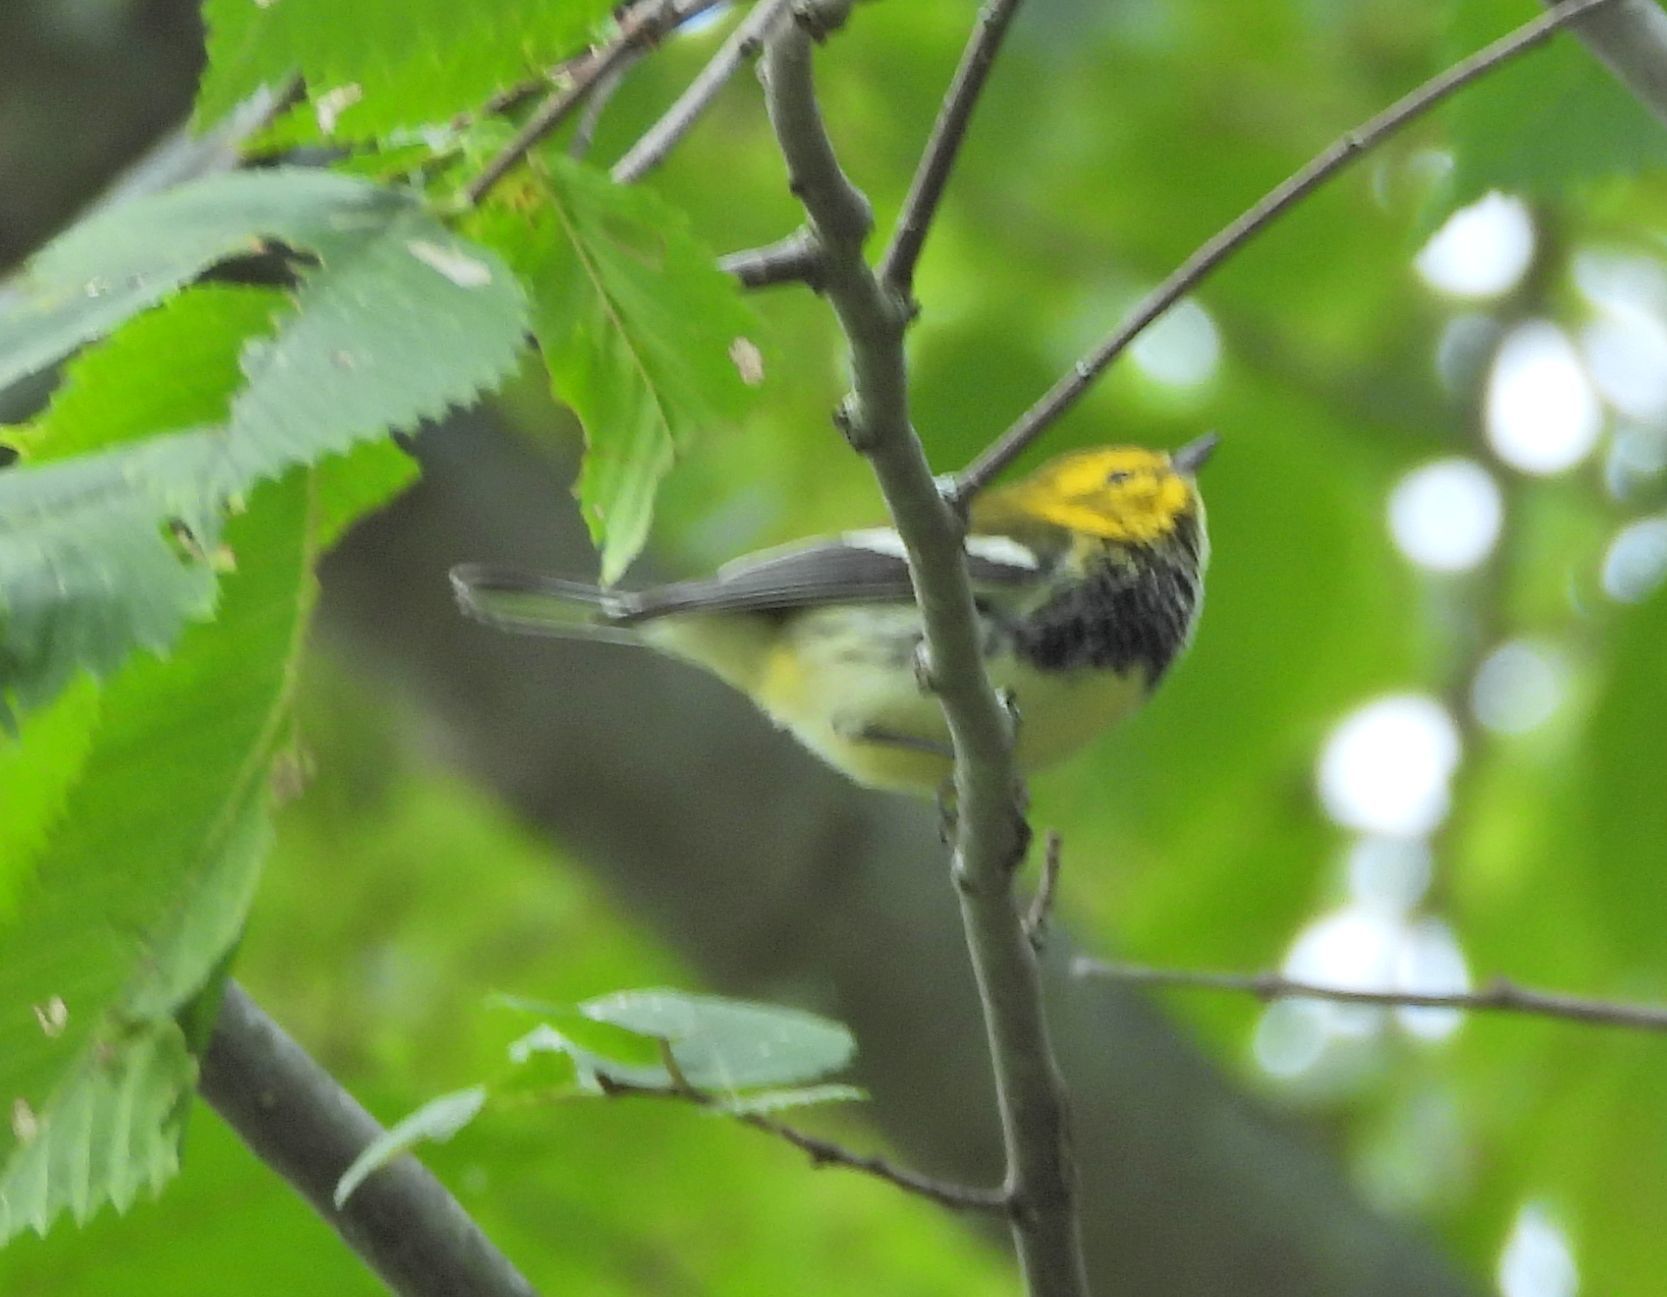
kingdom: Animalia
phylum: Chordata
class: Aves
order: Passeriformes
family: Parulidae
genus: Setophaga
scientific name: Setophaga virens
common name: Black-throated green warbler
